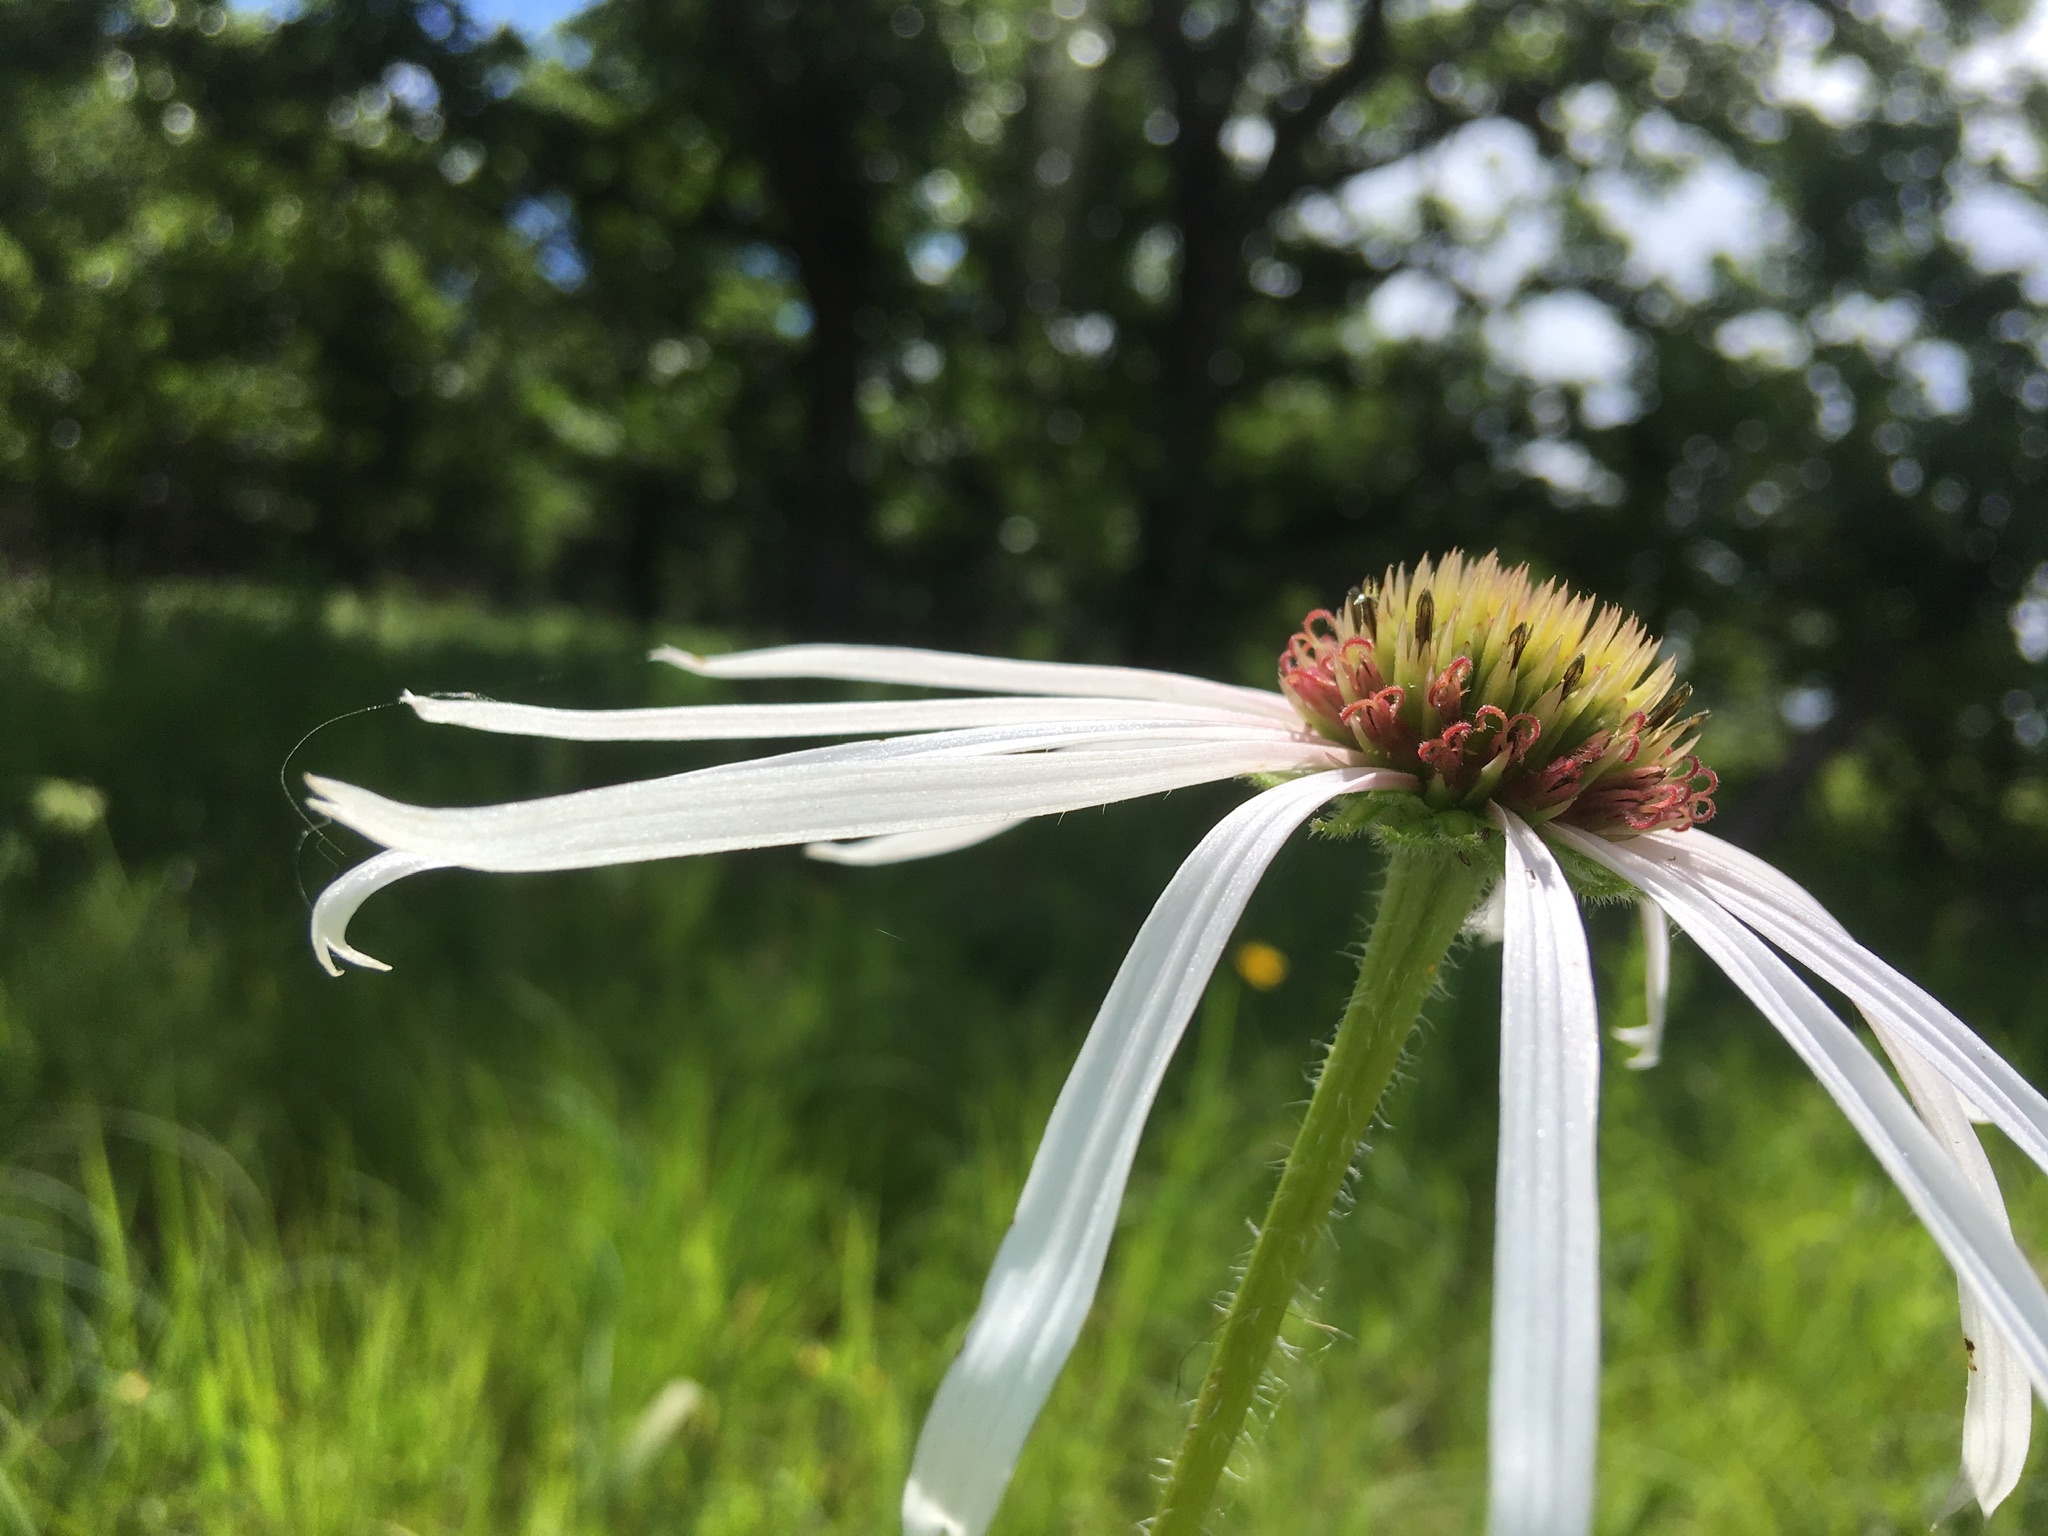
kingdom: Plantae
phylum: Tracheophyta
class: Magnoliopsida
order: Asterales
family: Asteraceae
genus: Echinacea
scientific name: Echinacea pallida
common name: Pale echinacea
